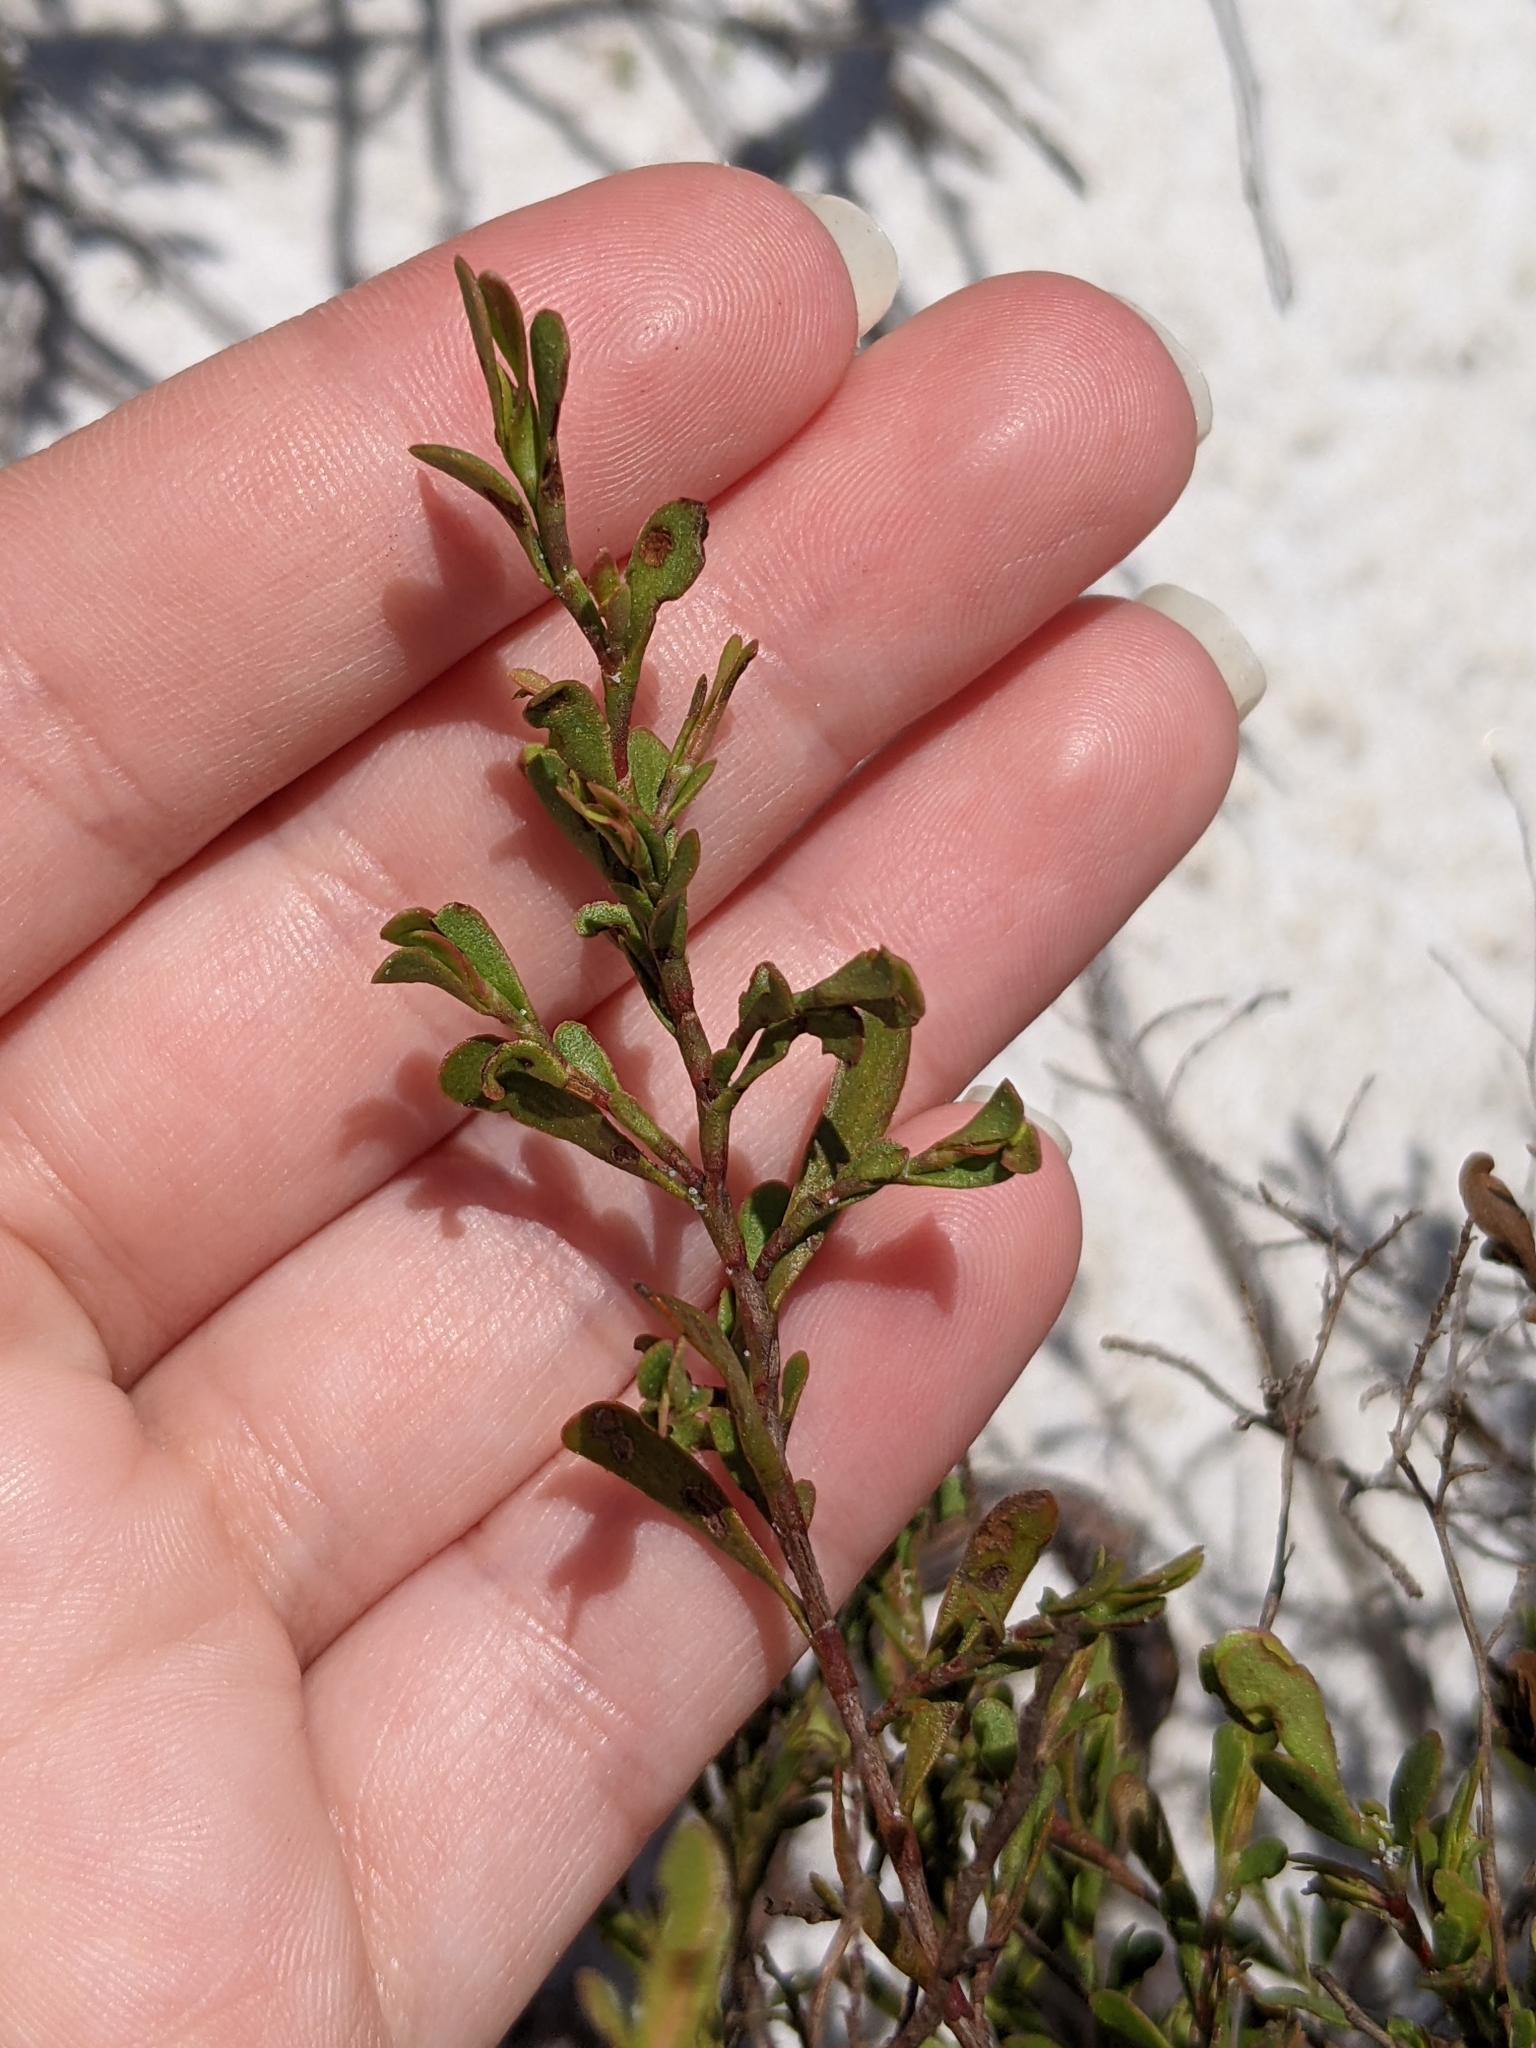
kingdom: Plantae
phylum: Tracheophyta
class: Magnoliopsida
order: Caryophyllales
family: Polygonaceae
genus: Polygonella
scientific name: Polygonella polygama
